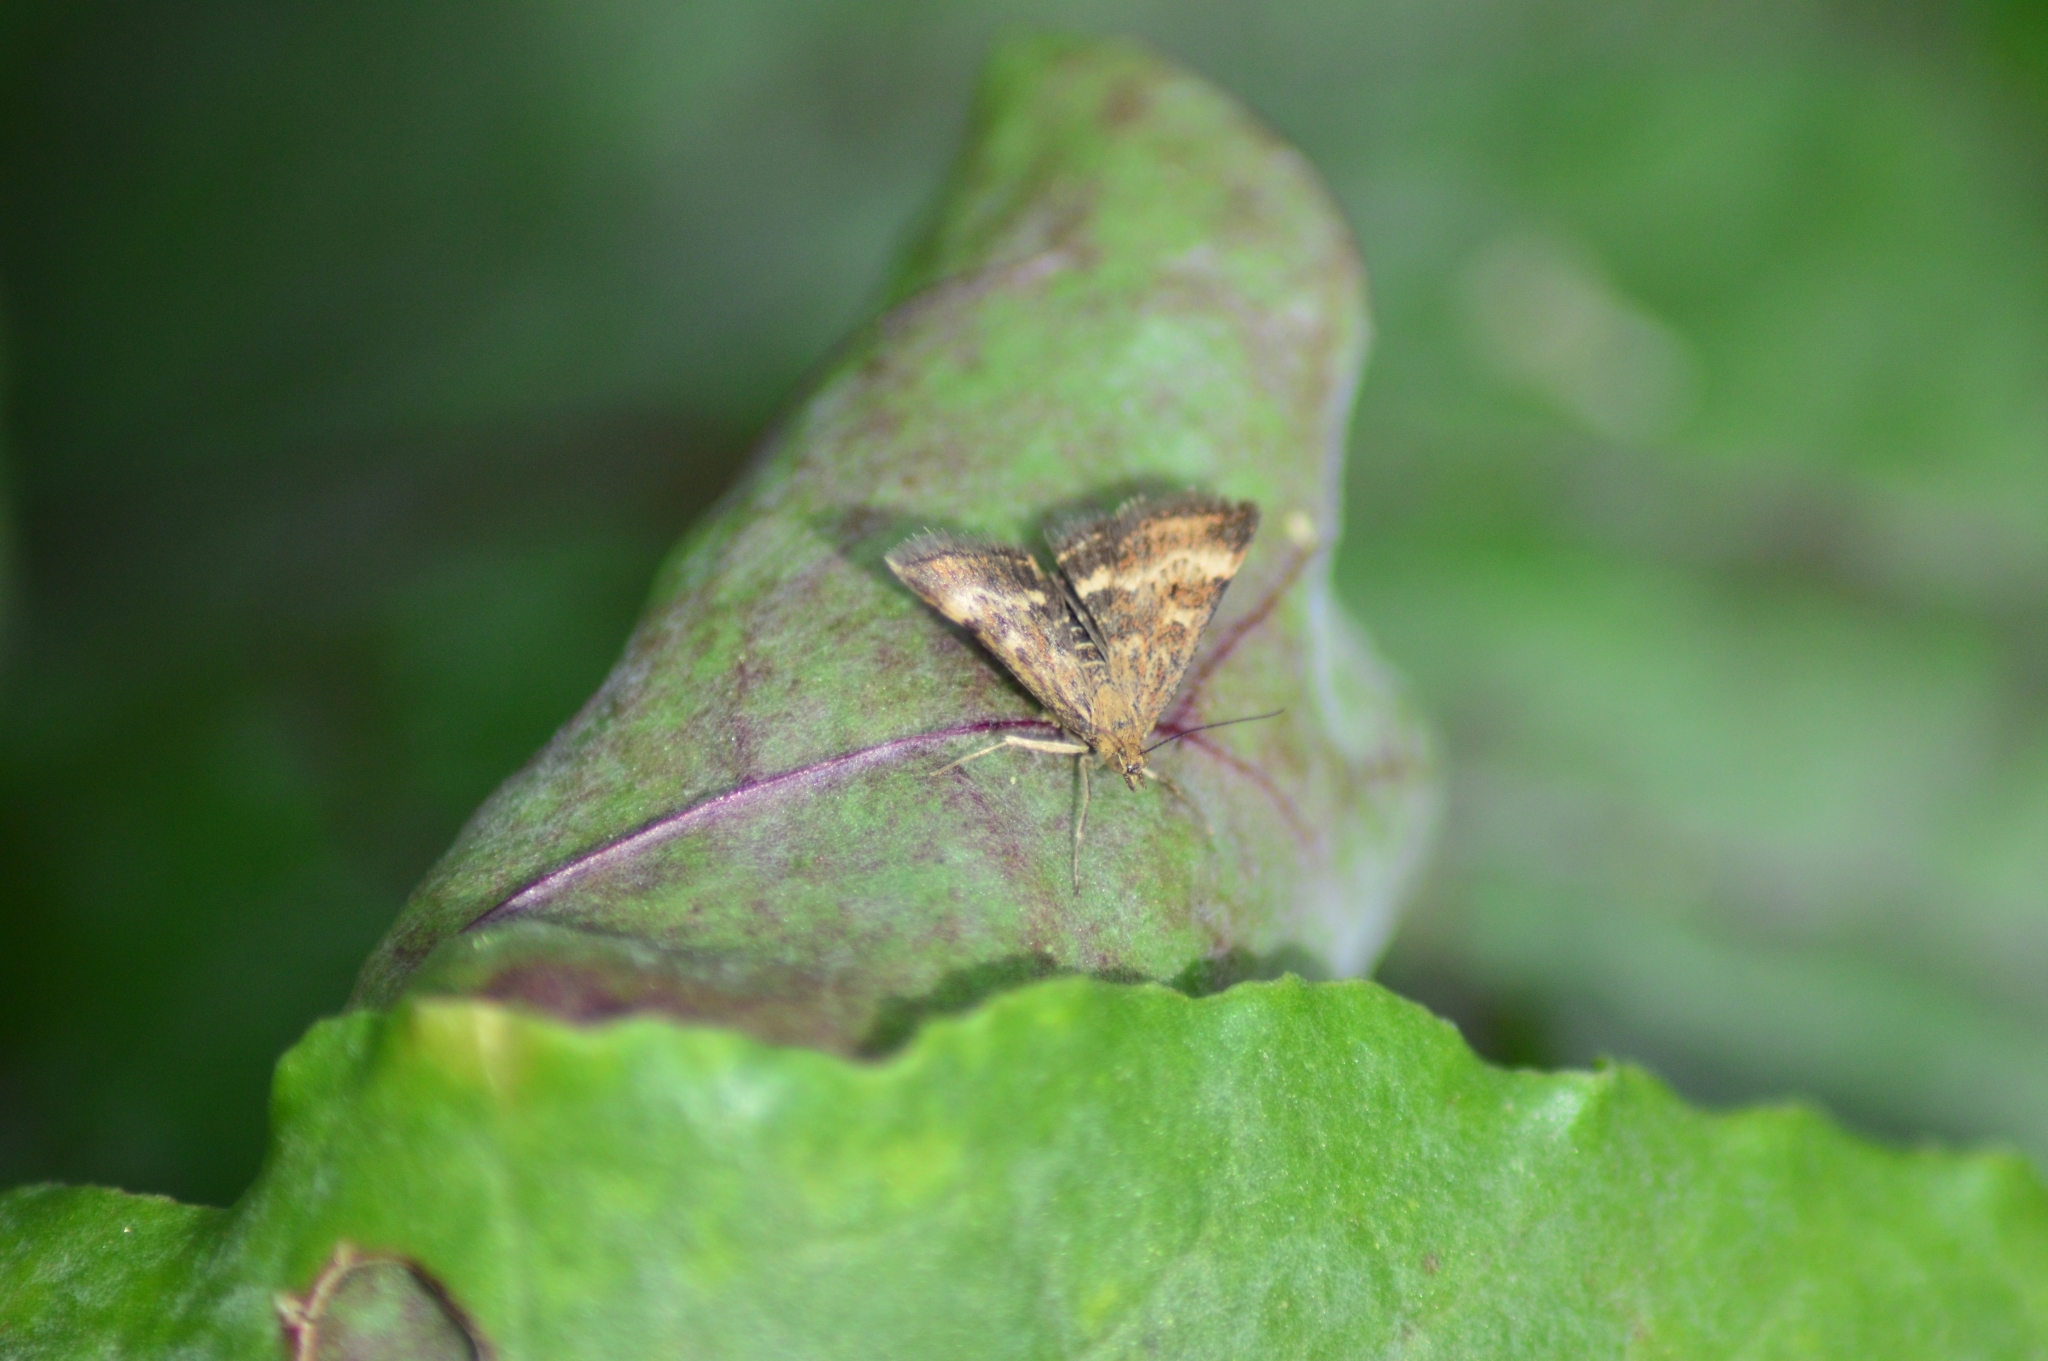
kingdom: Animalia
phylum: Arthropoda
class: Insecta
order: Lepidoptera
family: Crambidae
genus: Pyrausta
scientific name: Pyrausta despicata
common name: Straw-barred pearl
